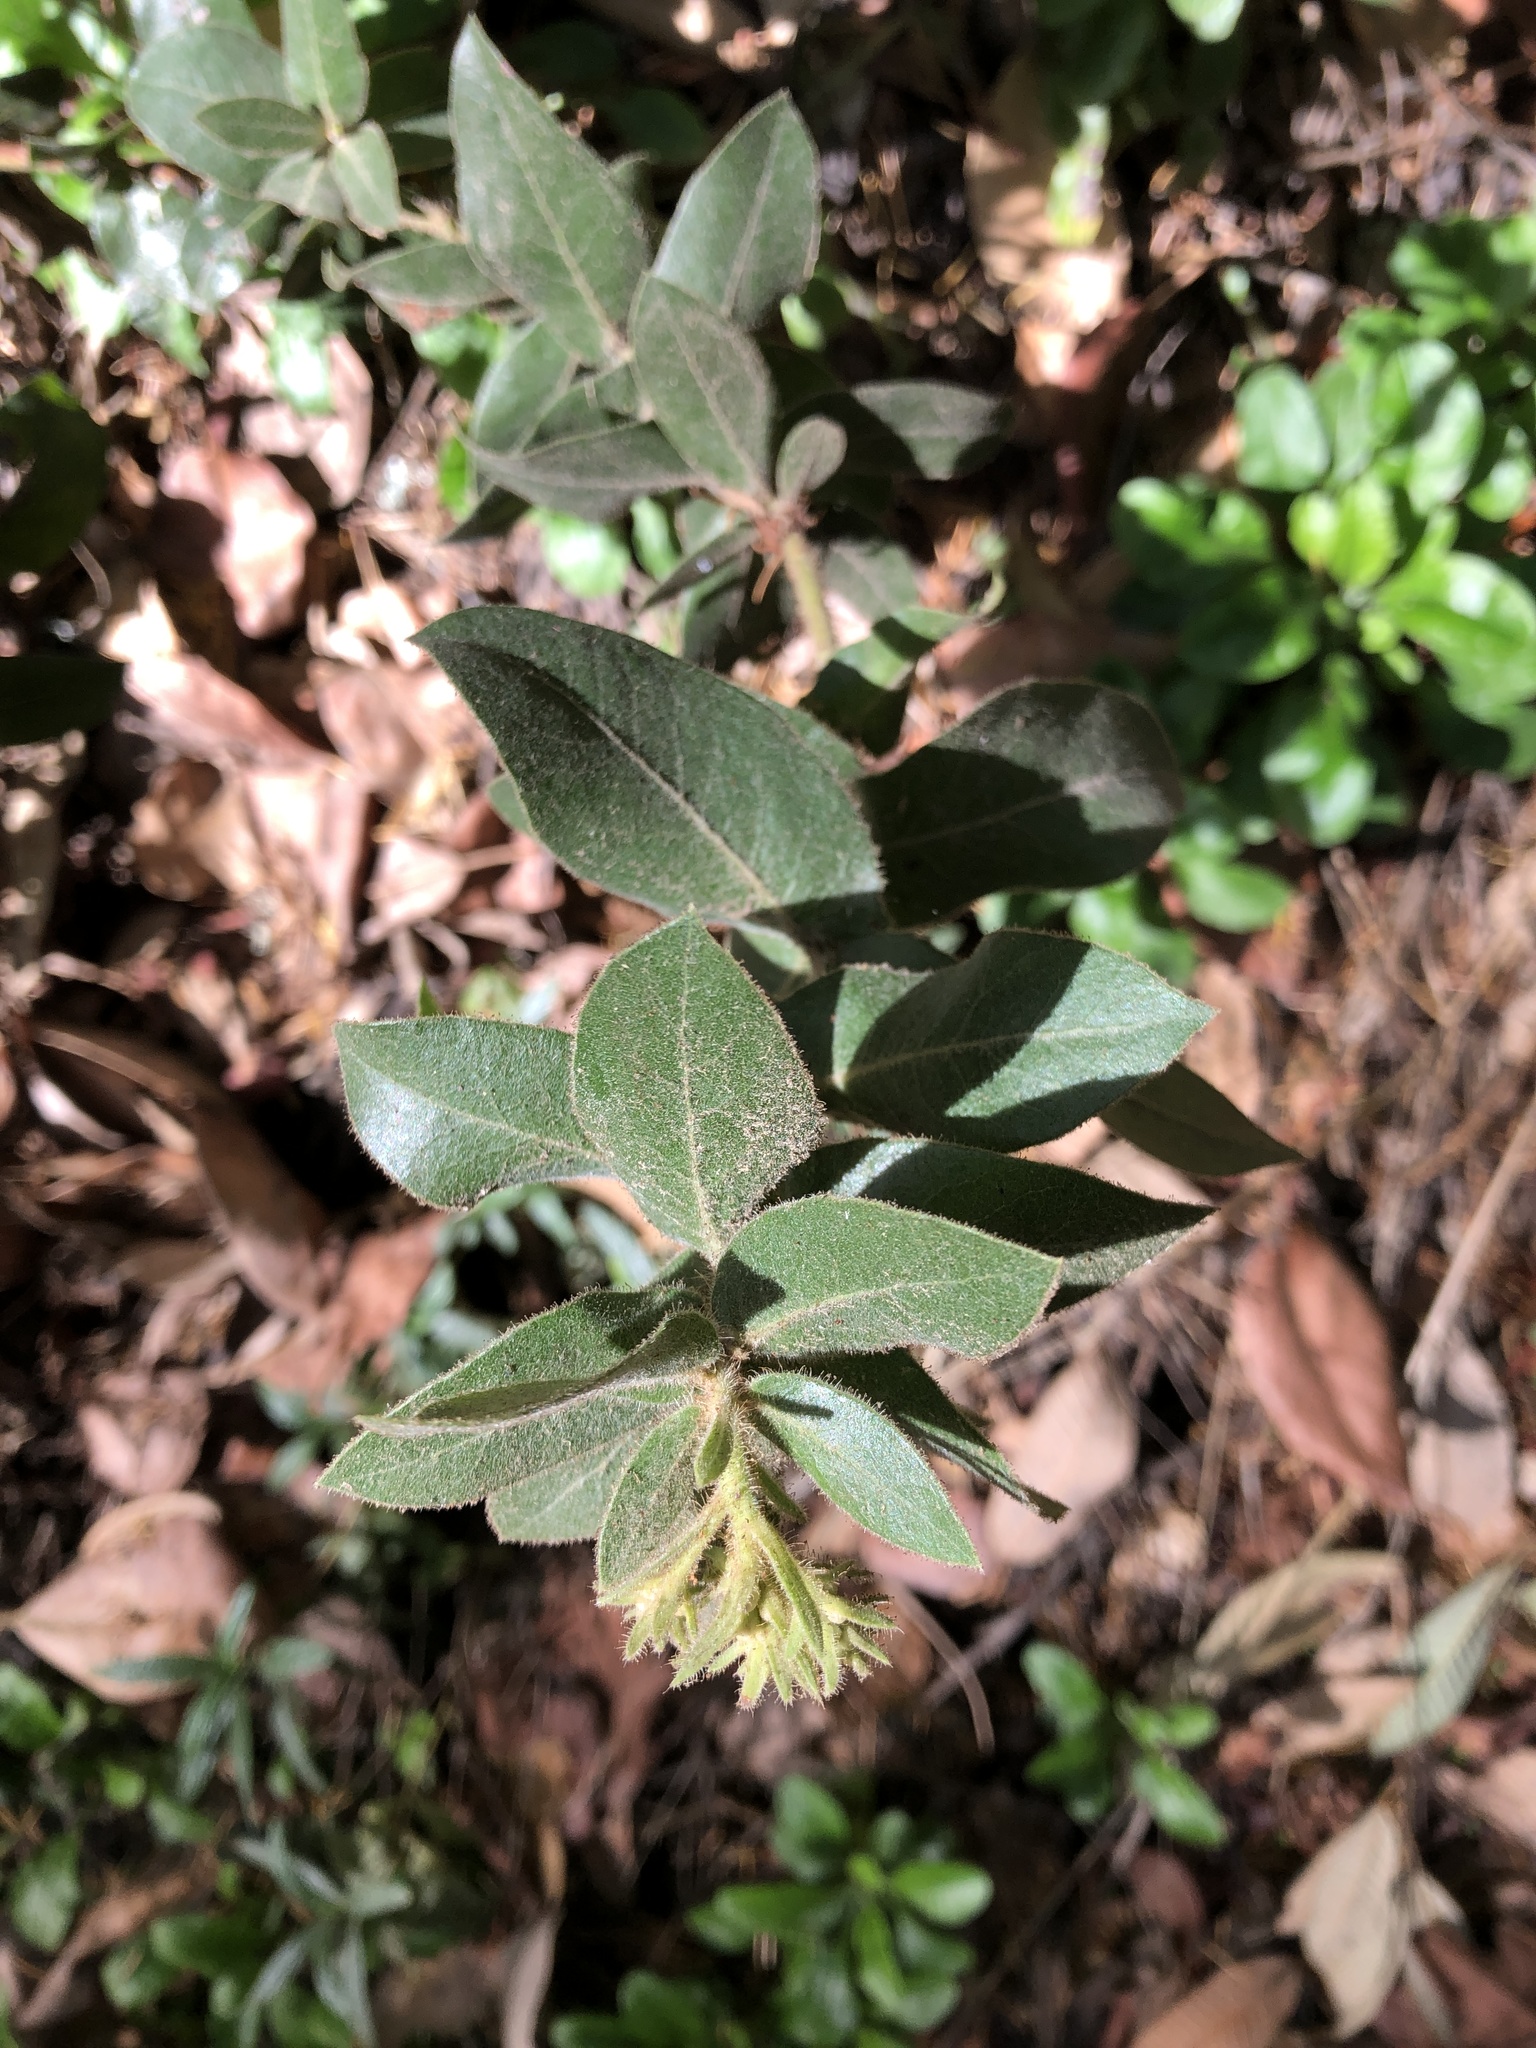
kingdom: Plantae
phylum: Tracheophyta
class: Magnoliopsida
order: Fagales
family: Fagaceae
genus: Chrysolepis
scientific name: Chrysolepis chrysophylla
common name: Giant chinquapin
